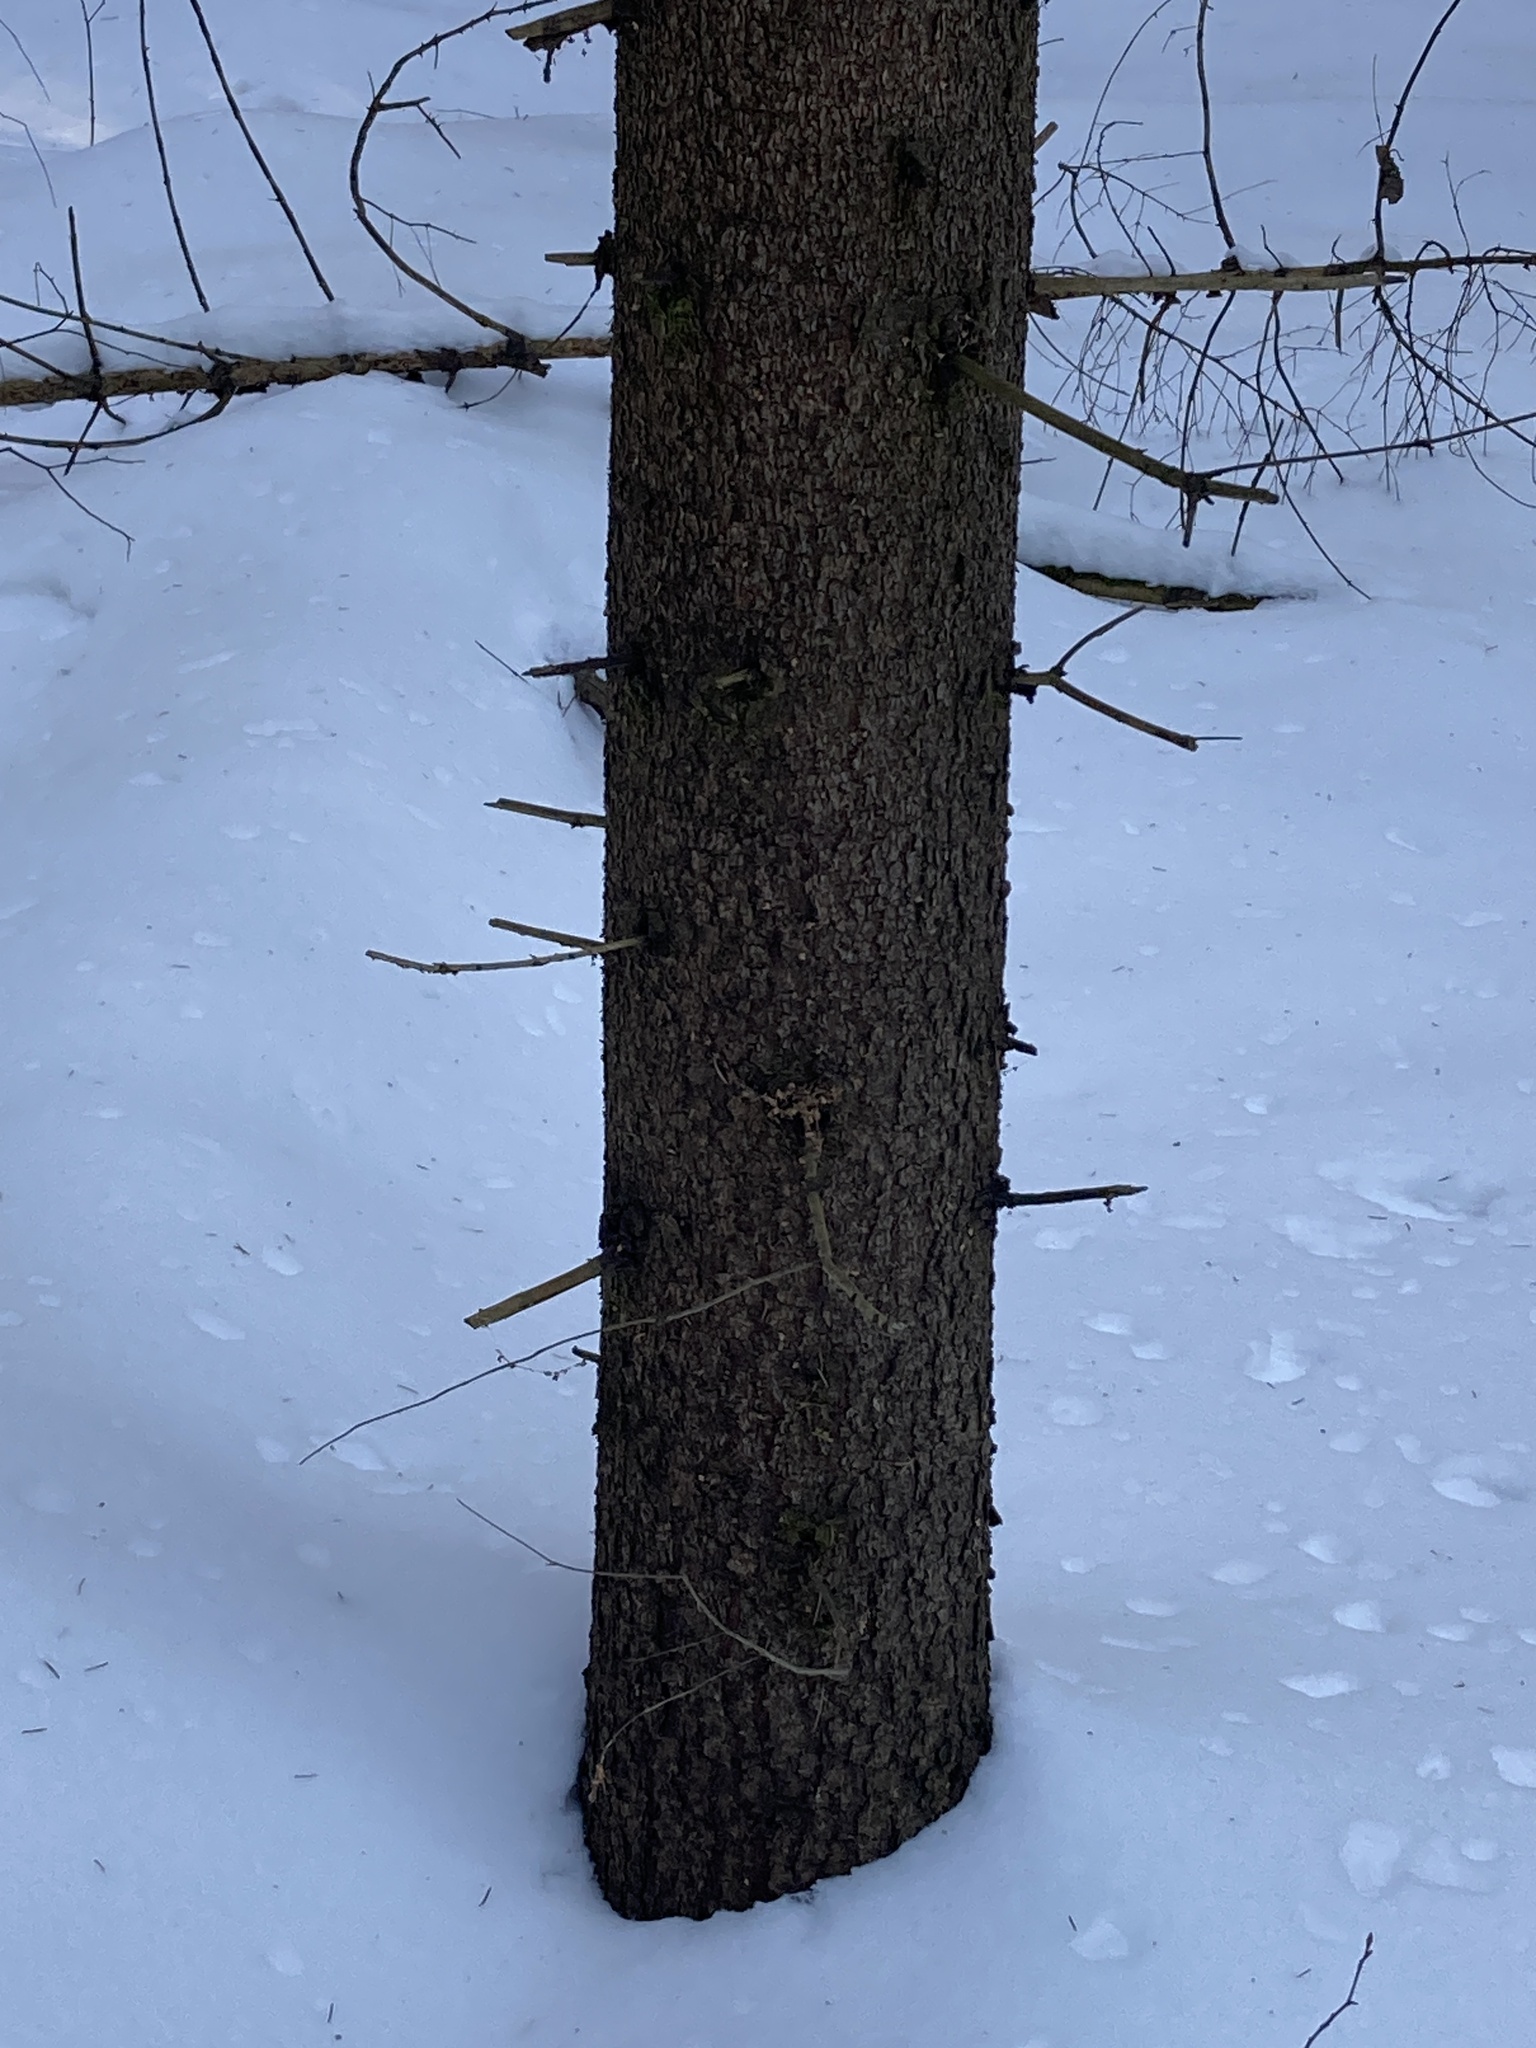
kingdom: Plantae
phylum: Tracheophyta
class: Pinopsida
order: Pinales
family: Pinaceae
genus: Picea
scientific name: Picea abies
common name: Norway spruce
